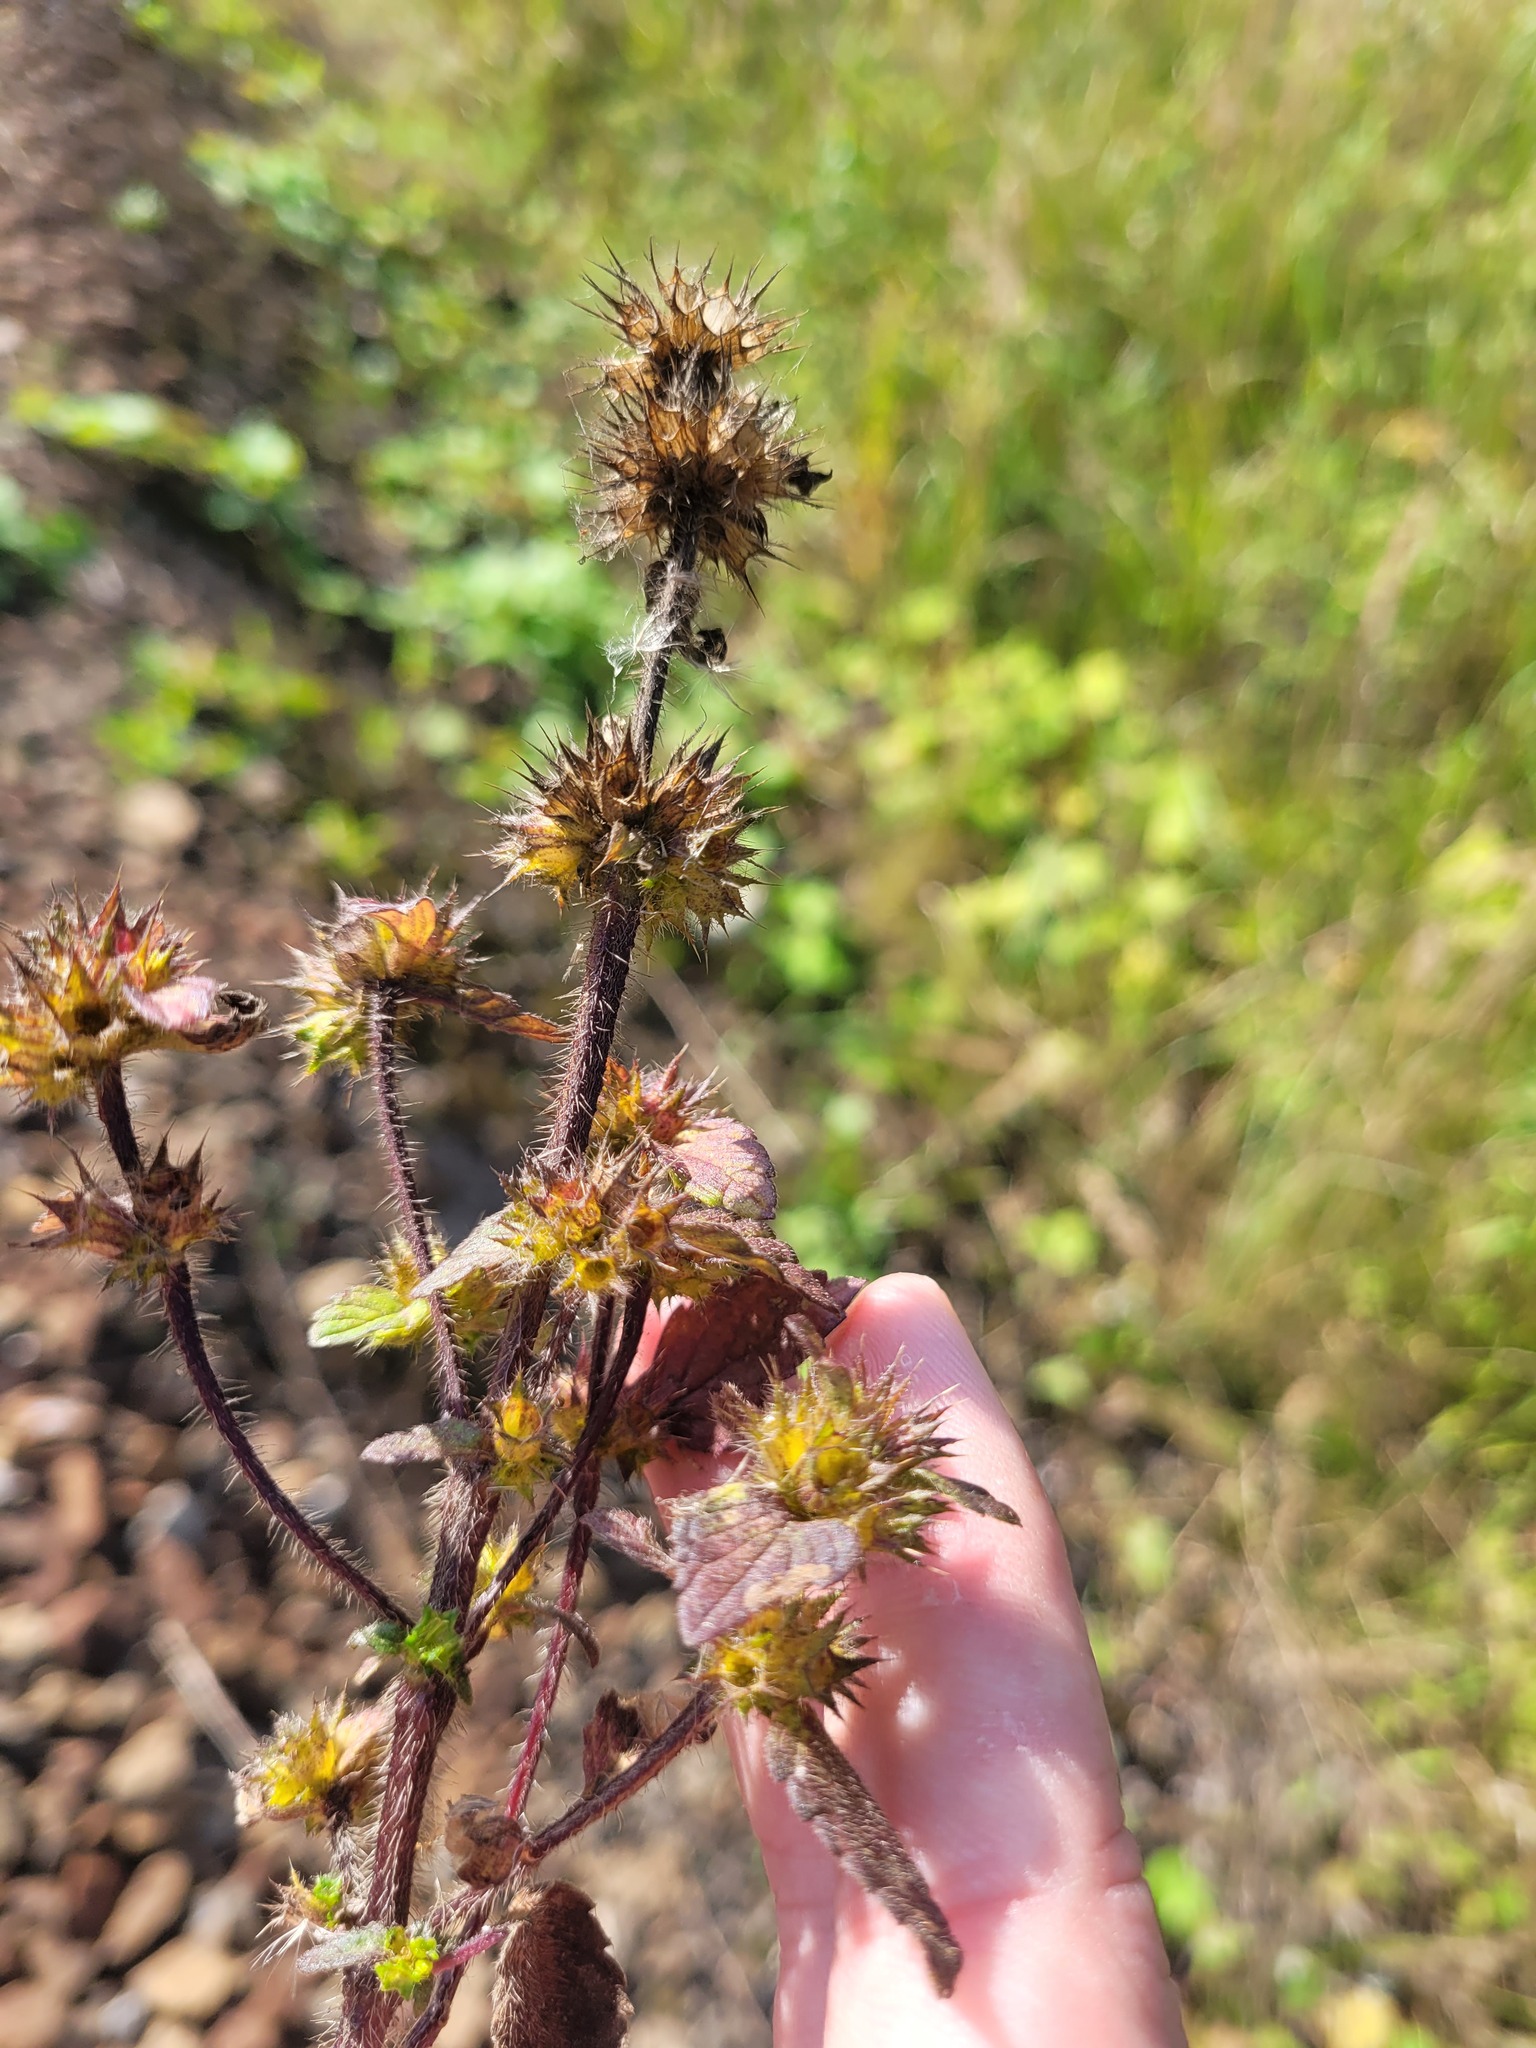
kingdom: Plantae
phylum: Tracheophyta
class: Magnoliopsida
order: Lamiales
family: Lamiaceae
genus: Galeopsis
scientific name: Galeopsis bifida
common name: Bifid hemp-nettle
